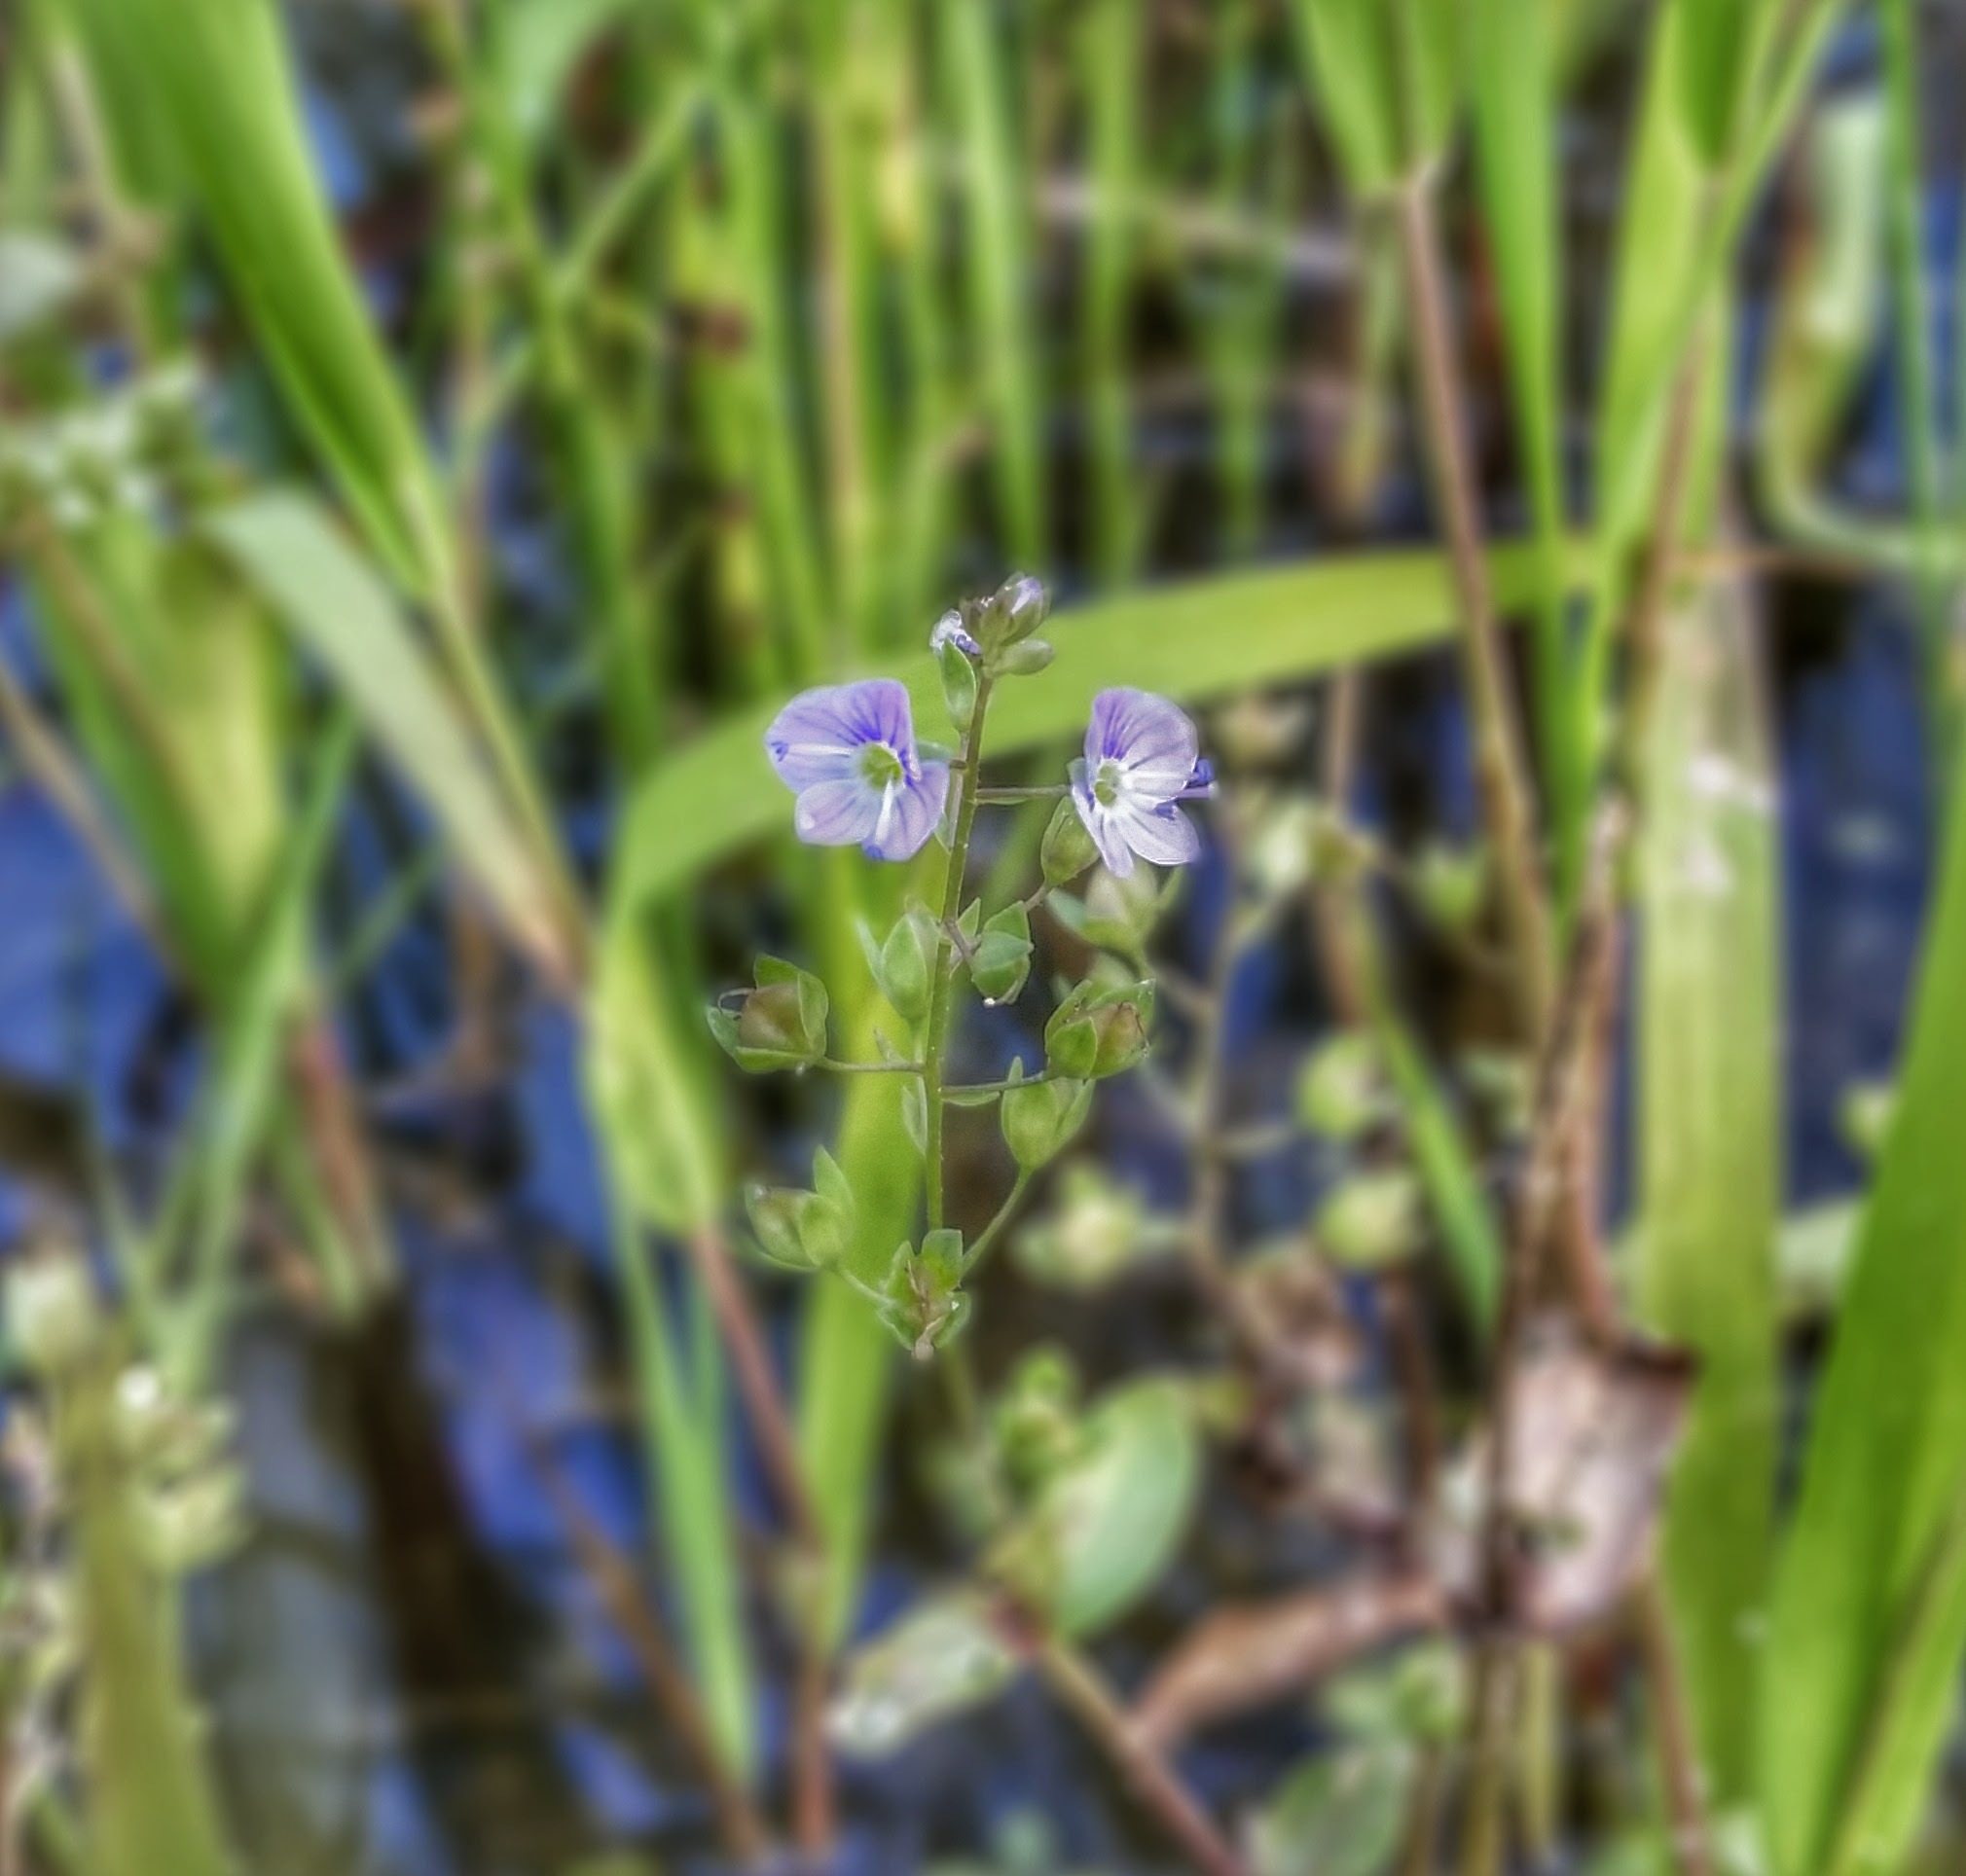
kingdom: Plantae
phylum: Tracheophyta
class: Magnoliopsida
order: Lamiales
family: Plantaginaceae
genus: Veronica
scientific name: Veronica anagallis-aquatica
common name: Water speedwell
